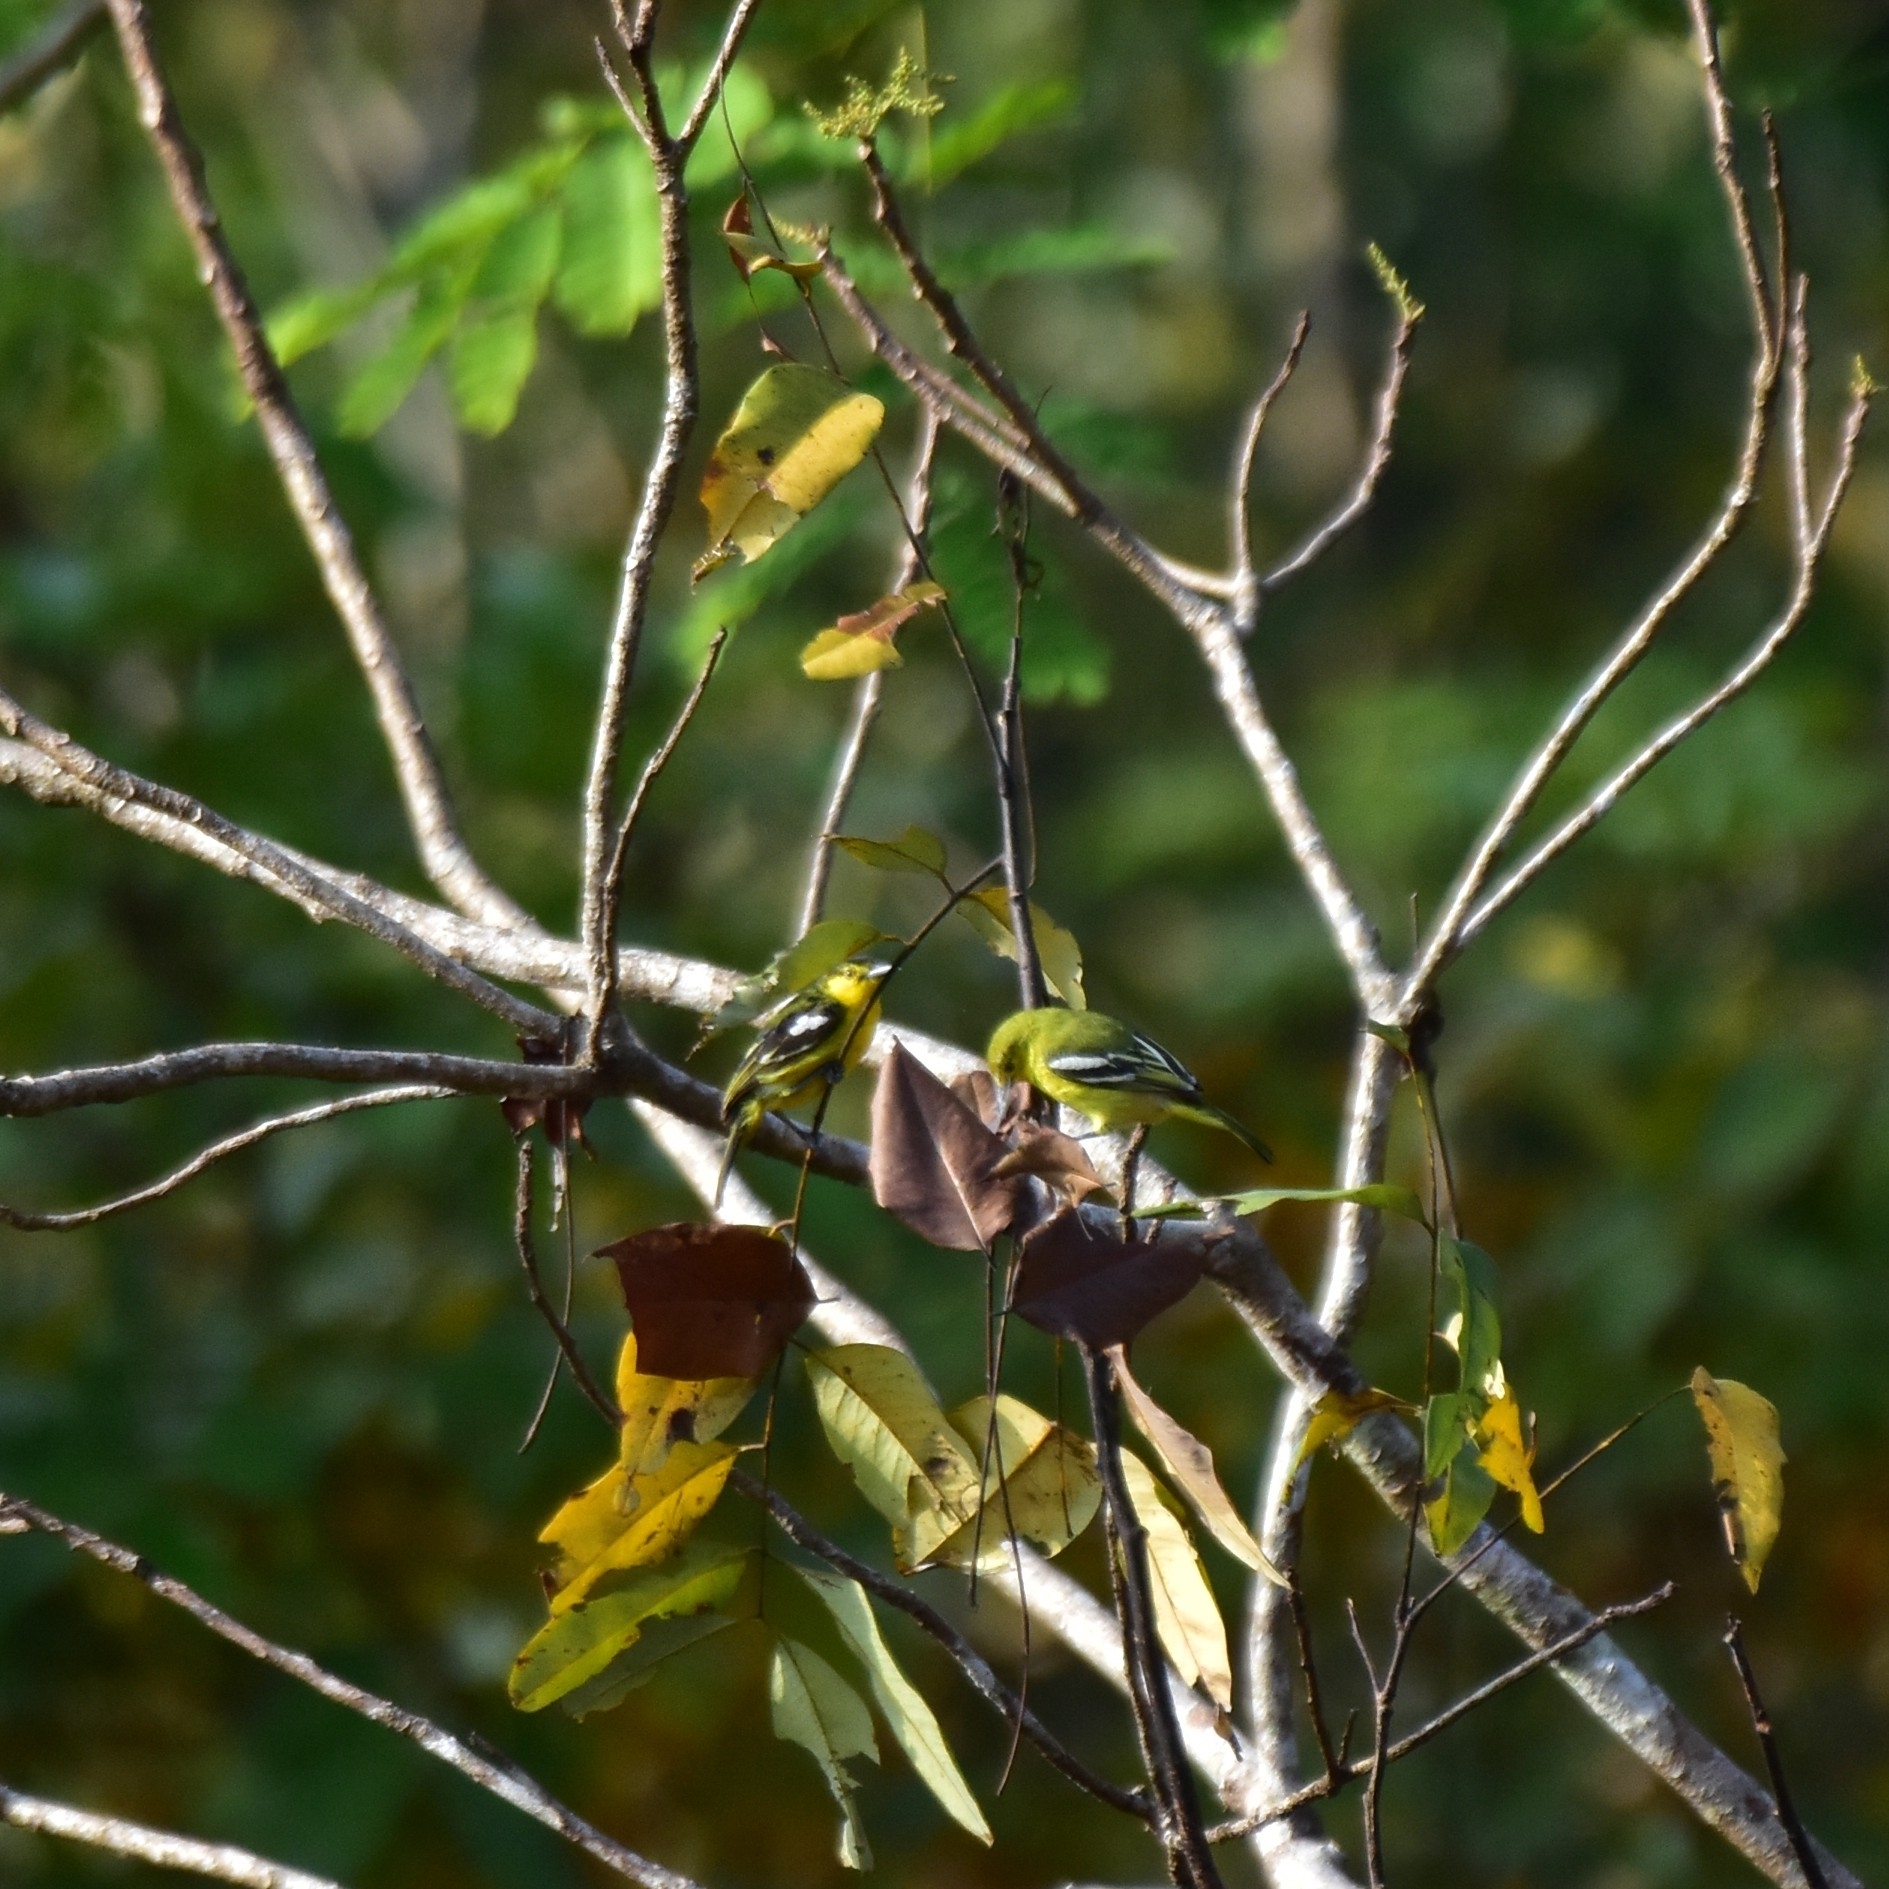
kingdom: Animalia
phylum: Chordata
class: Aves
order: Passeriformes
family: Aegithinidae
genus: Aegithina
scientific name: Aegithina tiphia
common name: Common iora
